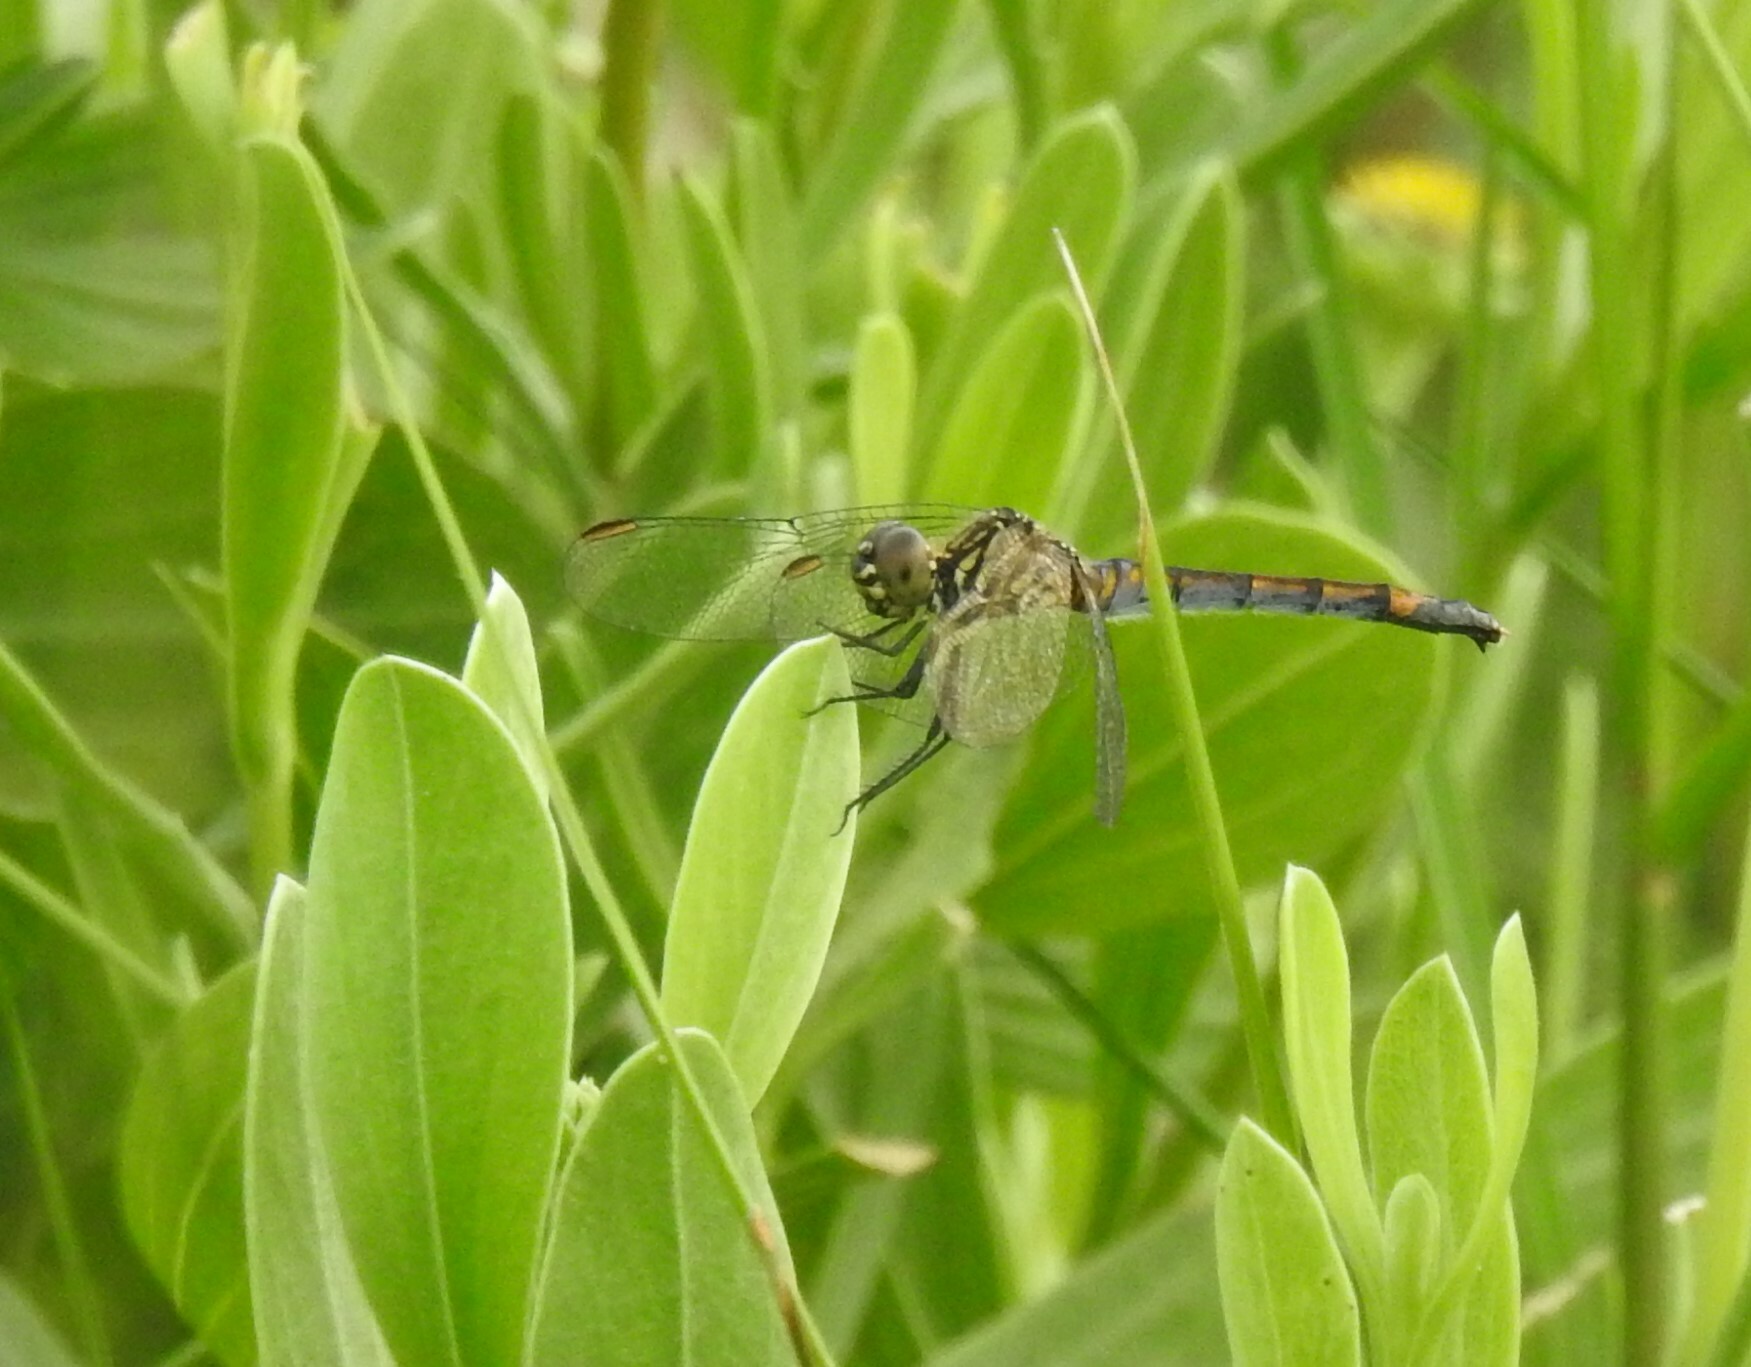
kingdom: Animalia
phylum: Arthropoda
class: Insecta
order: Odonata
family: Libellulidae
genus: Erythrodiplax
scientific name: Erythrodiplax berenice
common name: Seaside dragonlet
